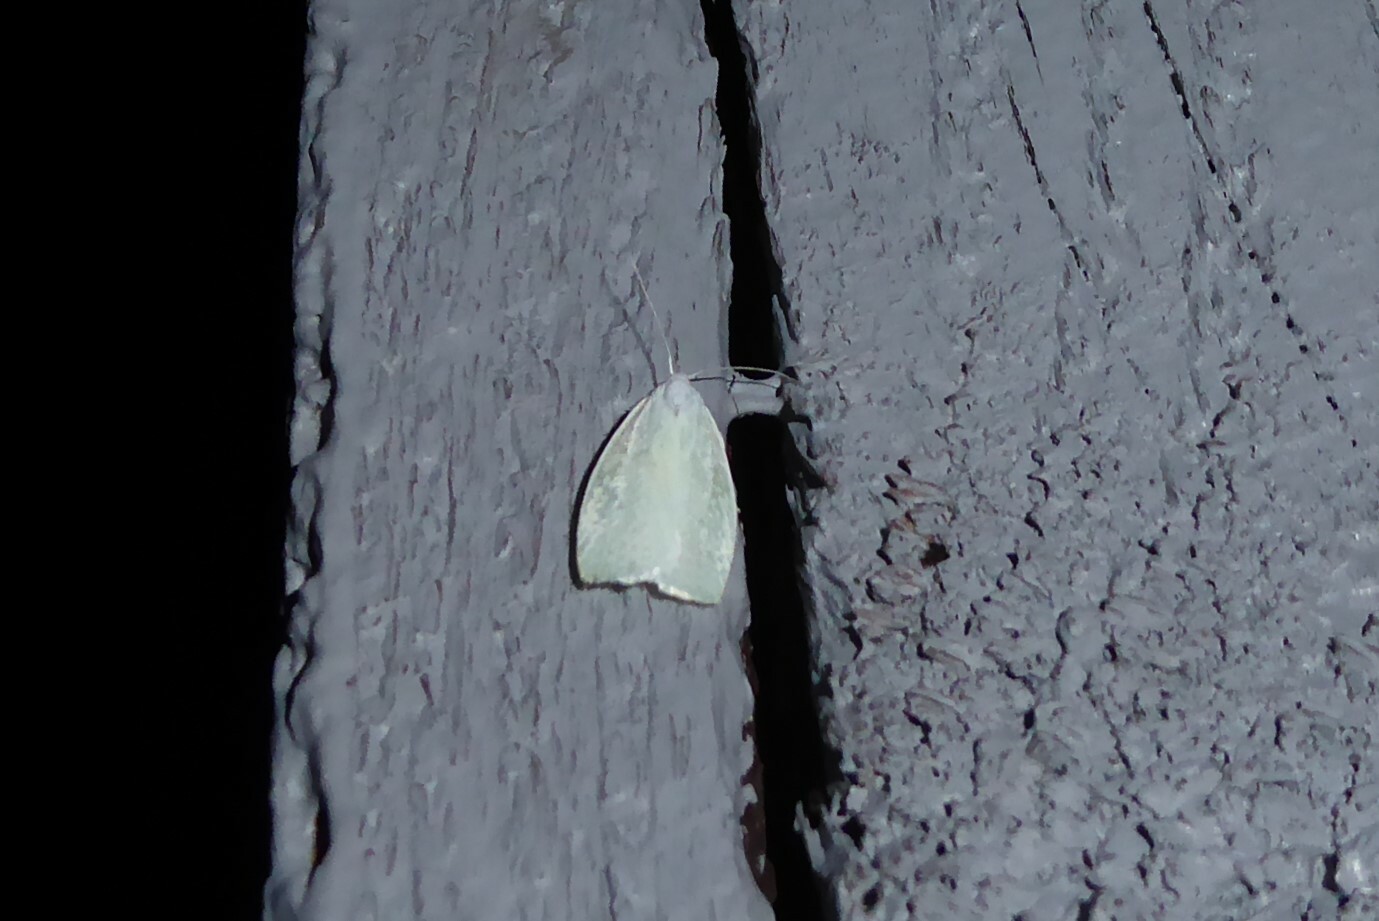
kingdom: Animalia
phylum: Arthropoda
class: Insecta
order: Lepidoptera
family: Oecophoridae
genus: Nymphostola
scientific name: Nymphostola galactina
